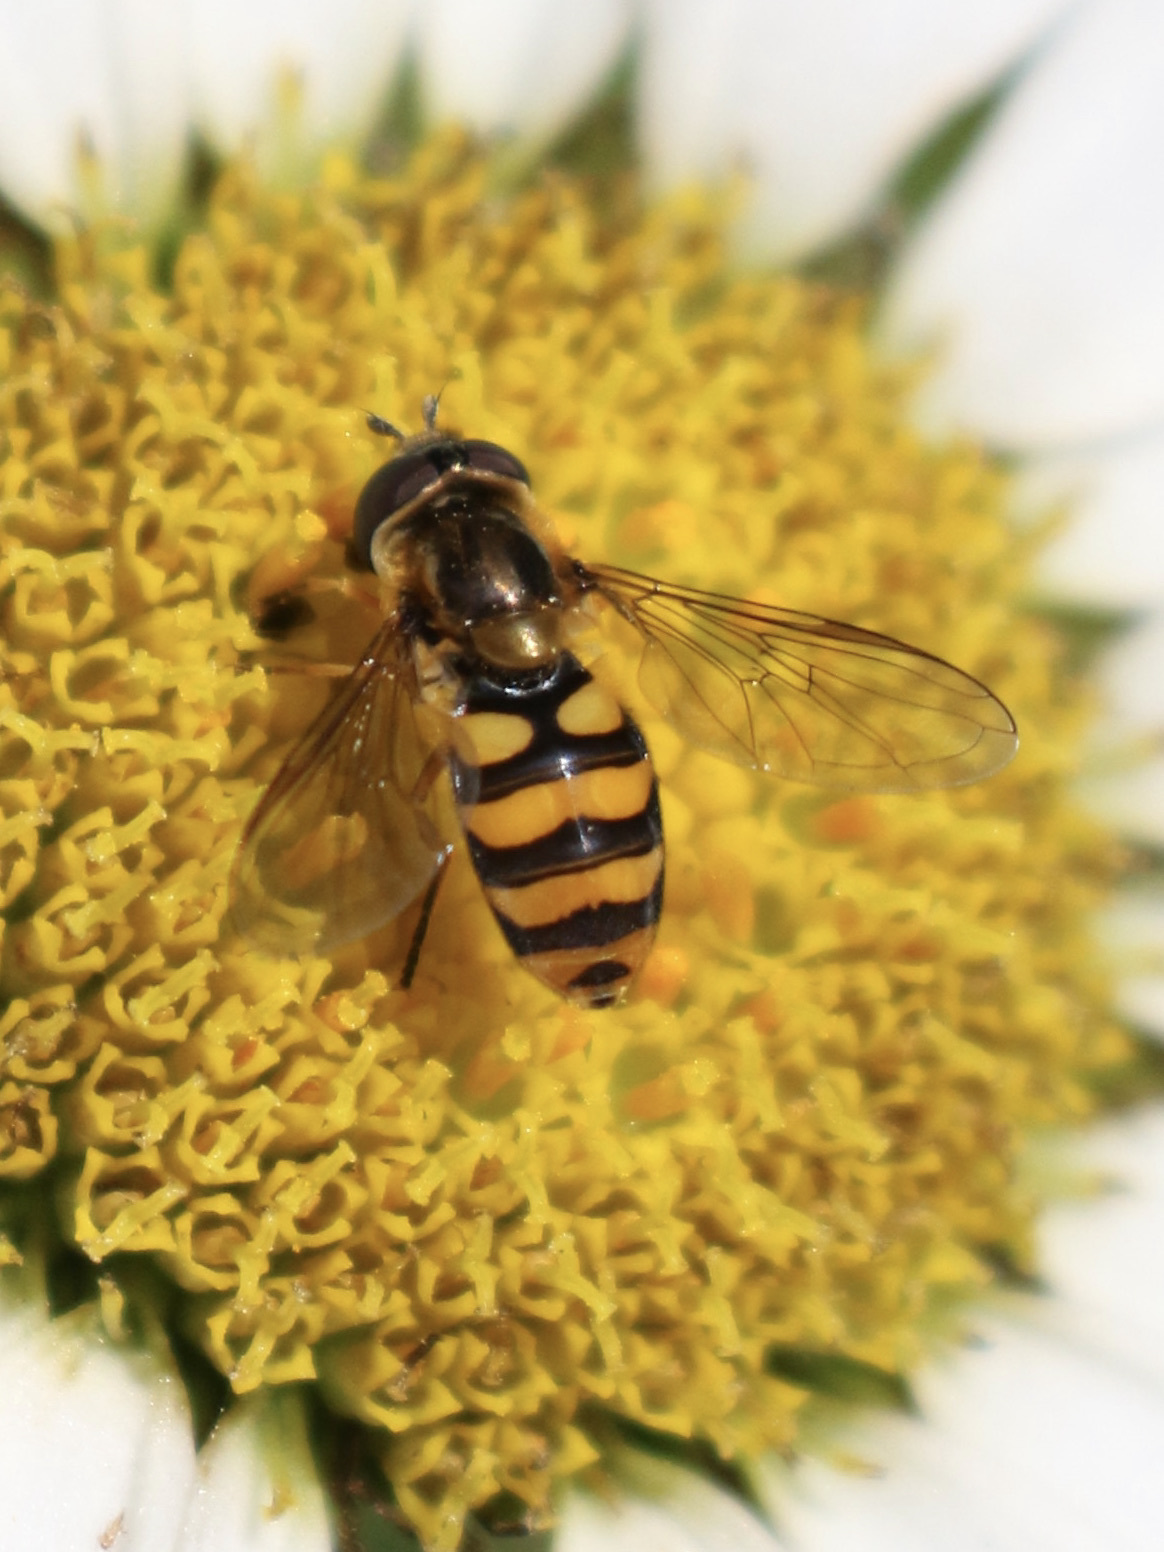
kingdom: Animalia
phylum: Arthropoda
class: Insecta
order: Diptera
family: Syrphidae
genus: Eupeodes
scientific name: Eupeodes latifasciatus
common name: Variable aphideater
